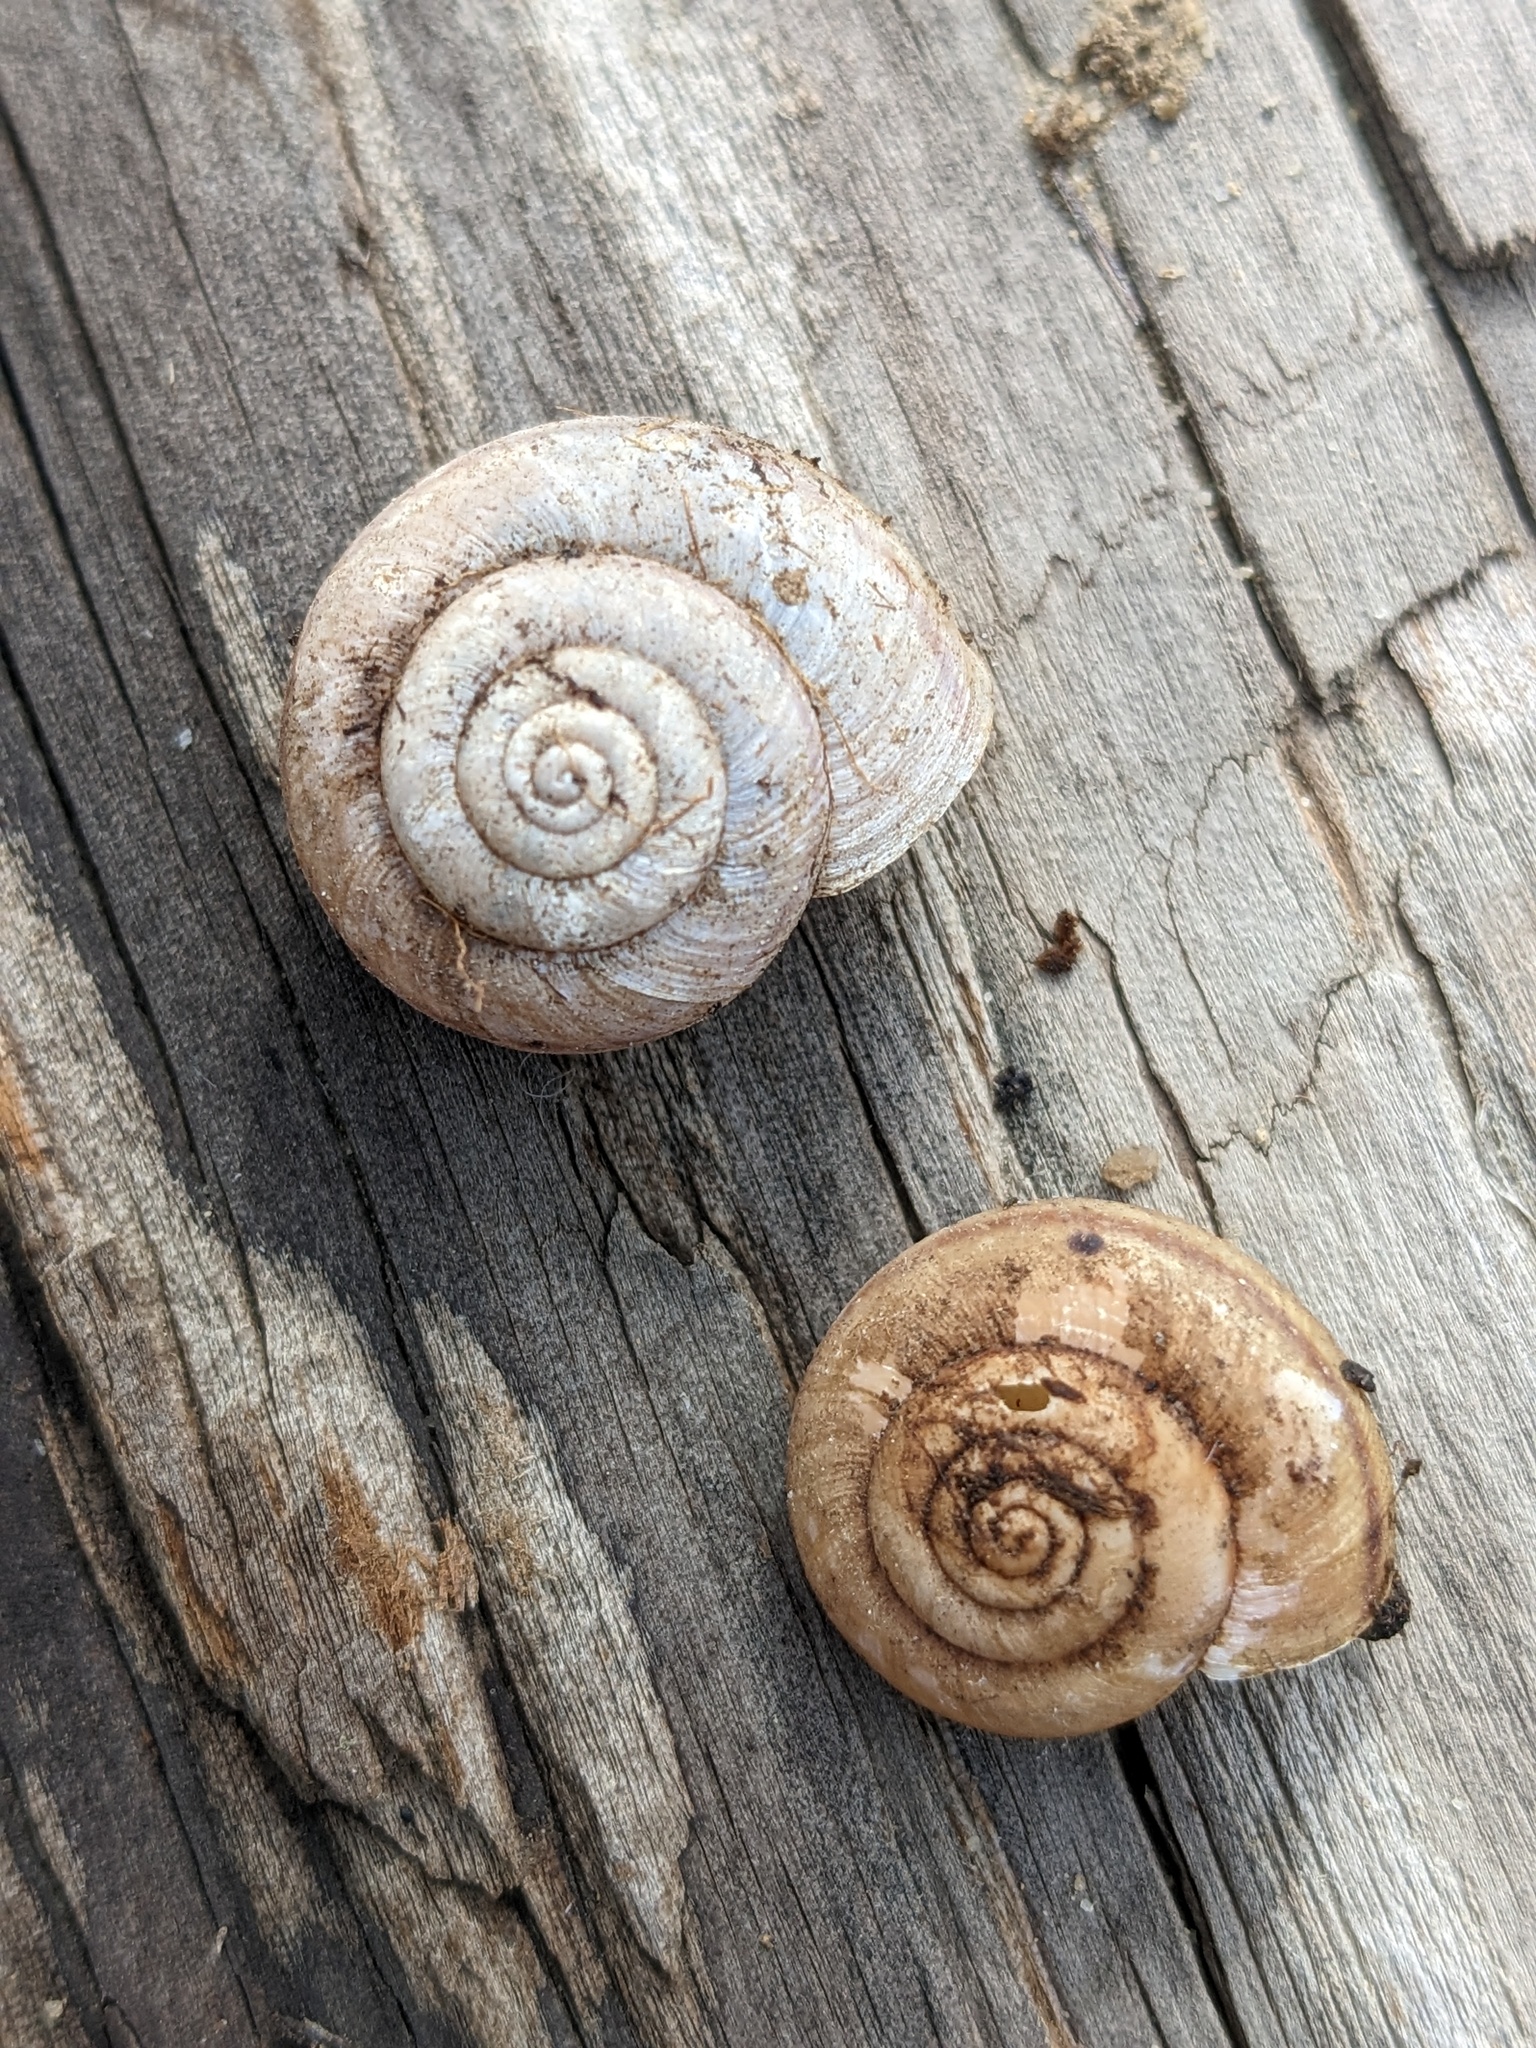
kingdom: Animalia
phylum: Mollusca
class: Gastropoda
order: Stylommatophora
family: Xanthonychidae
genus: Helminthoglypta
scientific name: Helminthoglypta carpenteri
